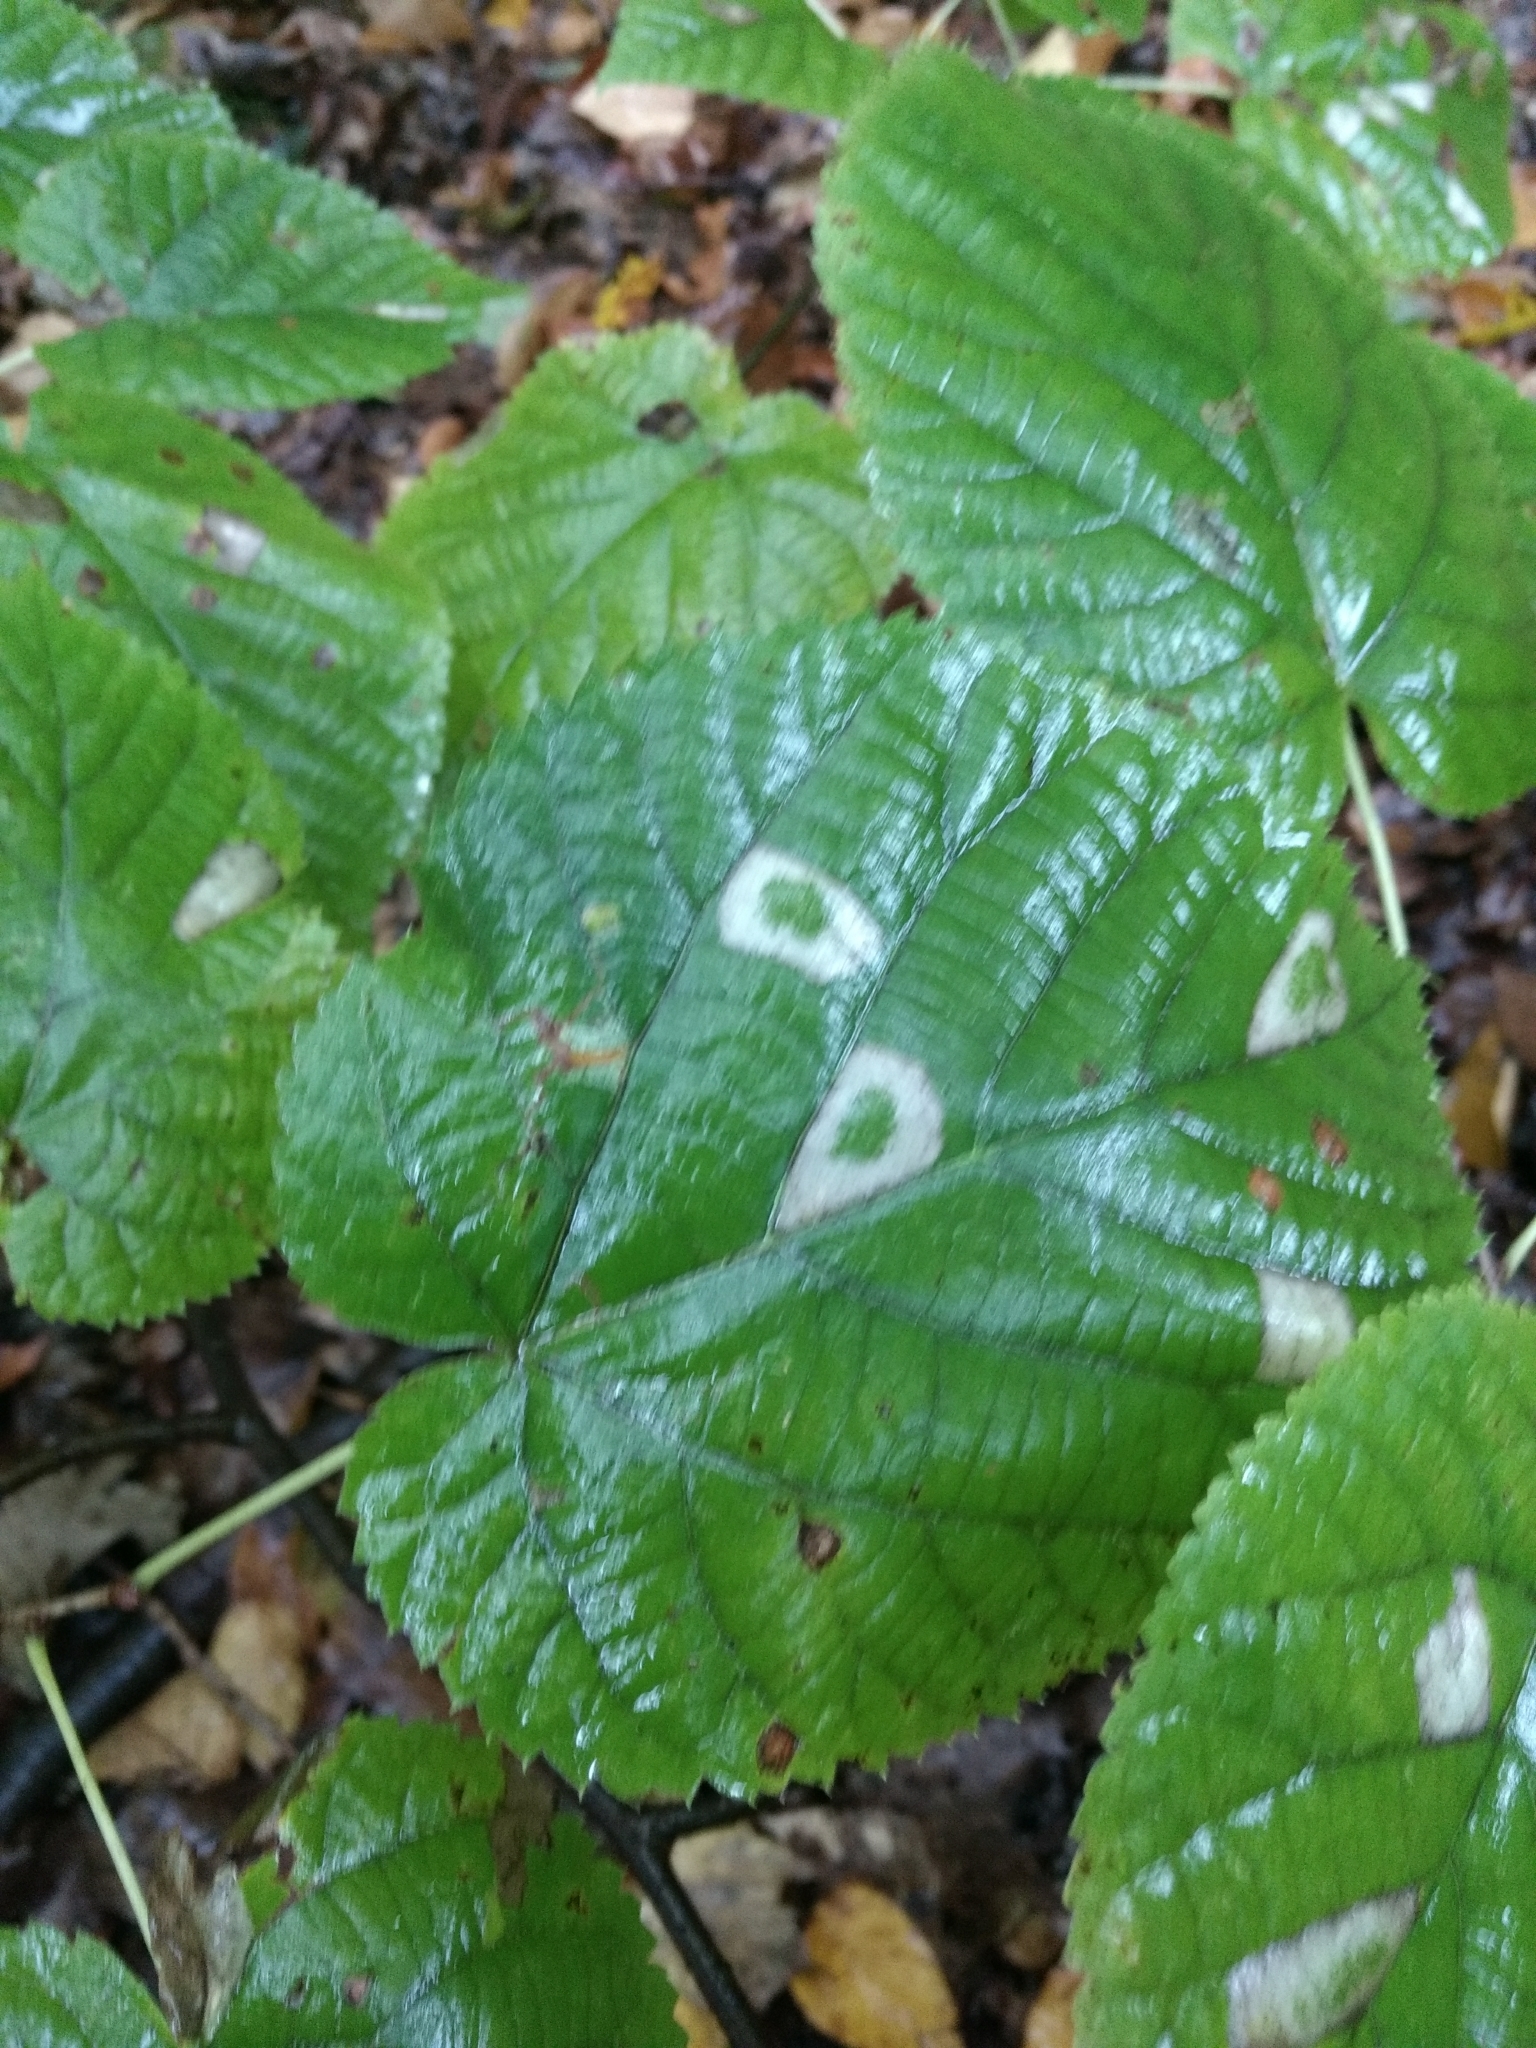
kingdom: Animalia
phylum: Arthropoda
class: Insecta
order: Lepidoptera
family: Gracillariidae
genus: Phyllonorycter
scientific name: Phyllonorycter lucetiella
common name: Basswood miner moth
